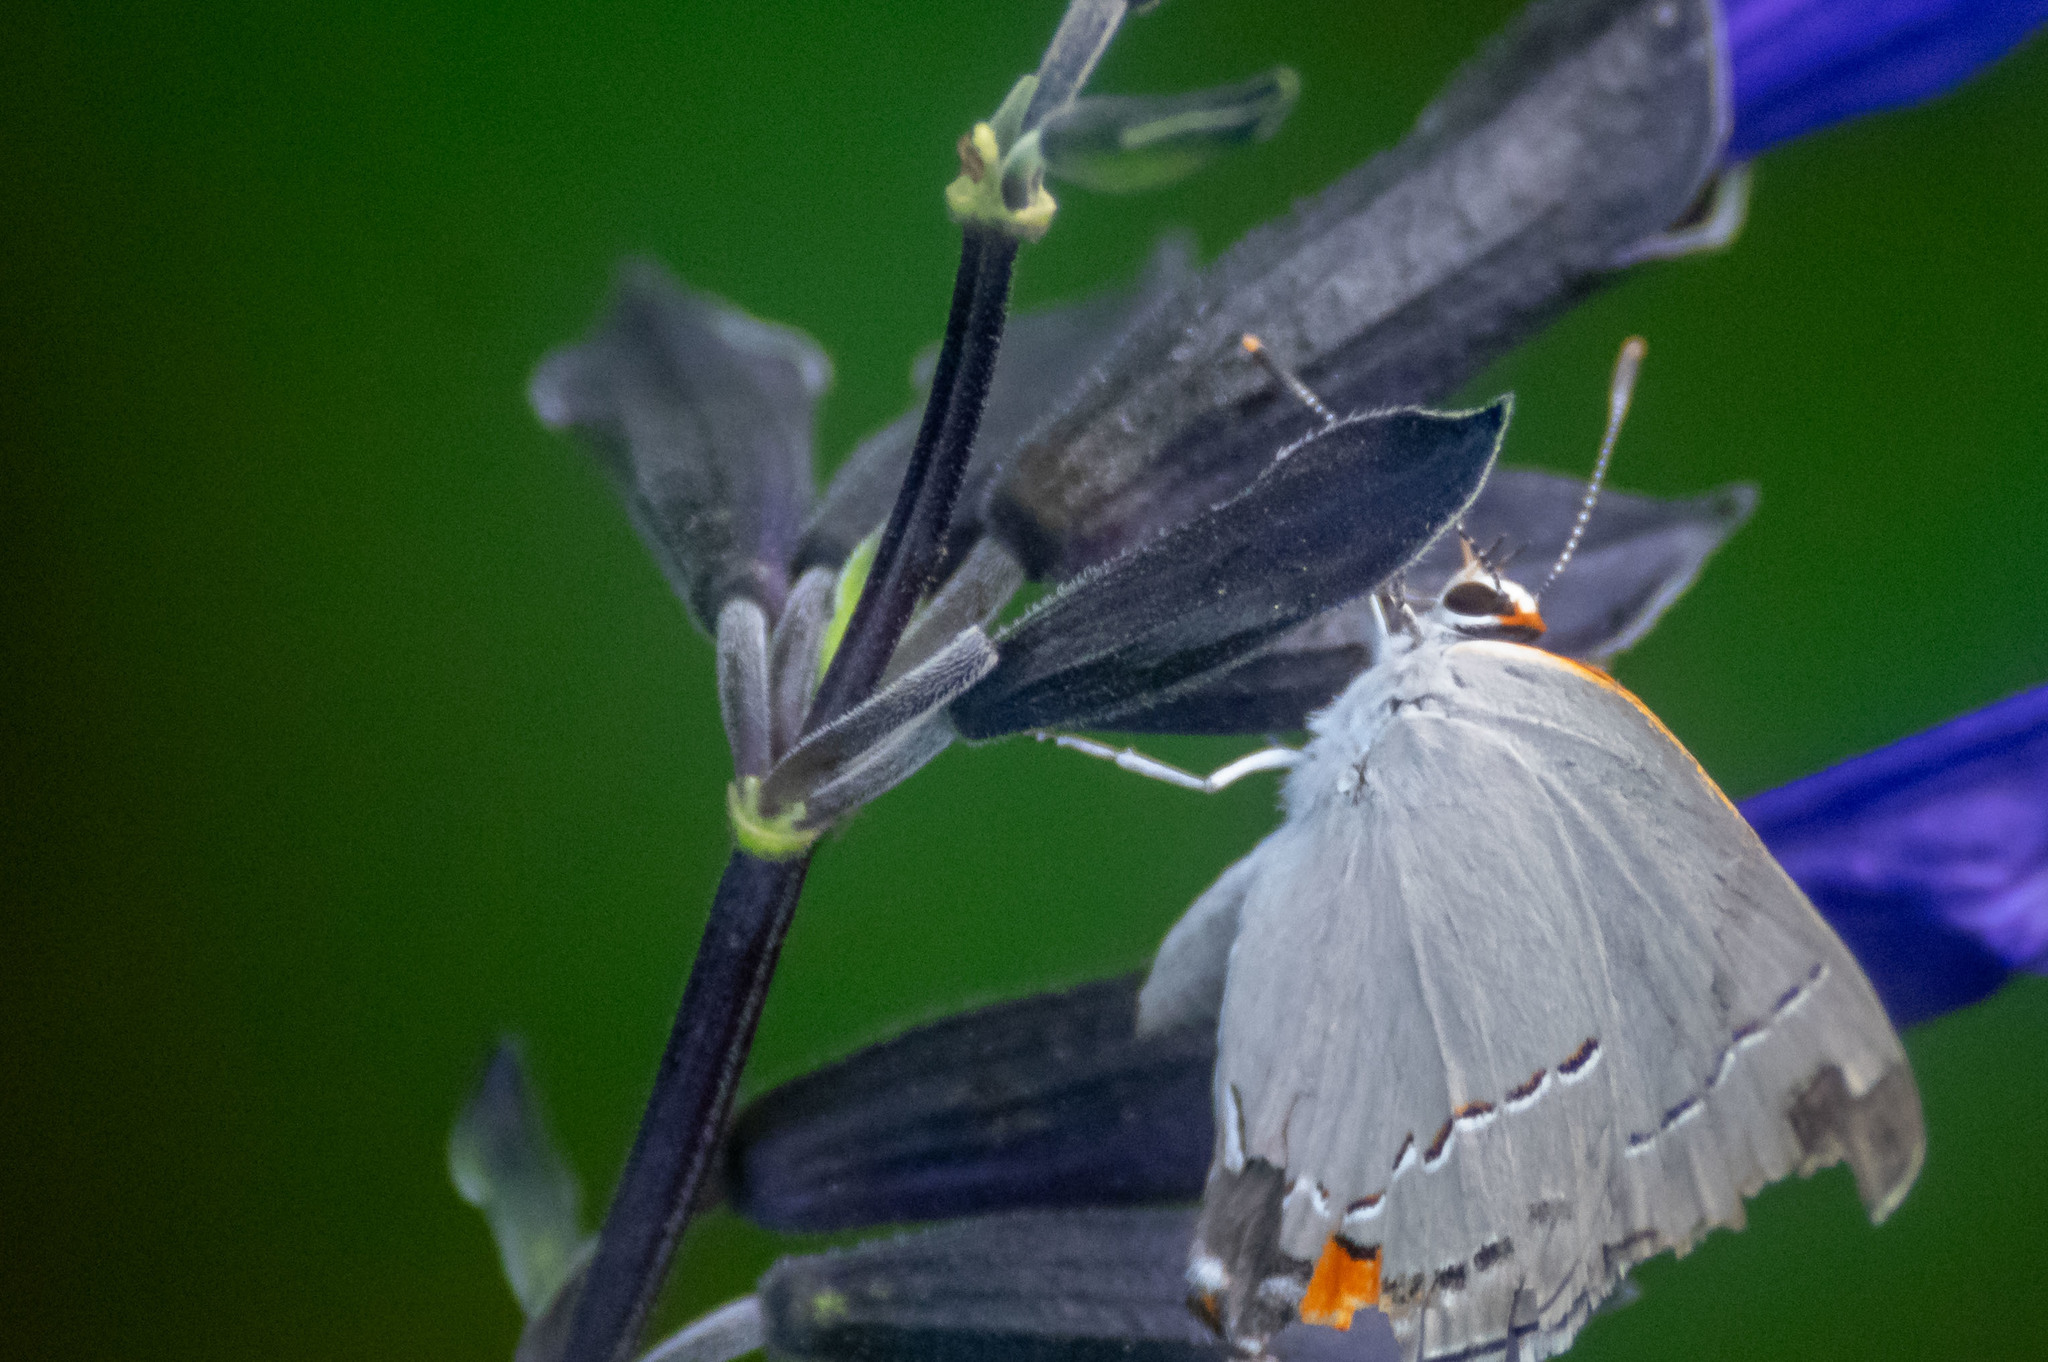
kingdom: Animalia
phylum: Arthropoda
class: Insecta
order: Lepidoptera
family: Lycaenidae
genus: Strymon
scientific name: Strymon melinus
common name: Gray hairstreak
